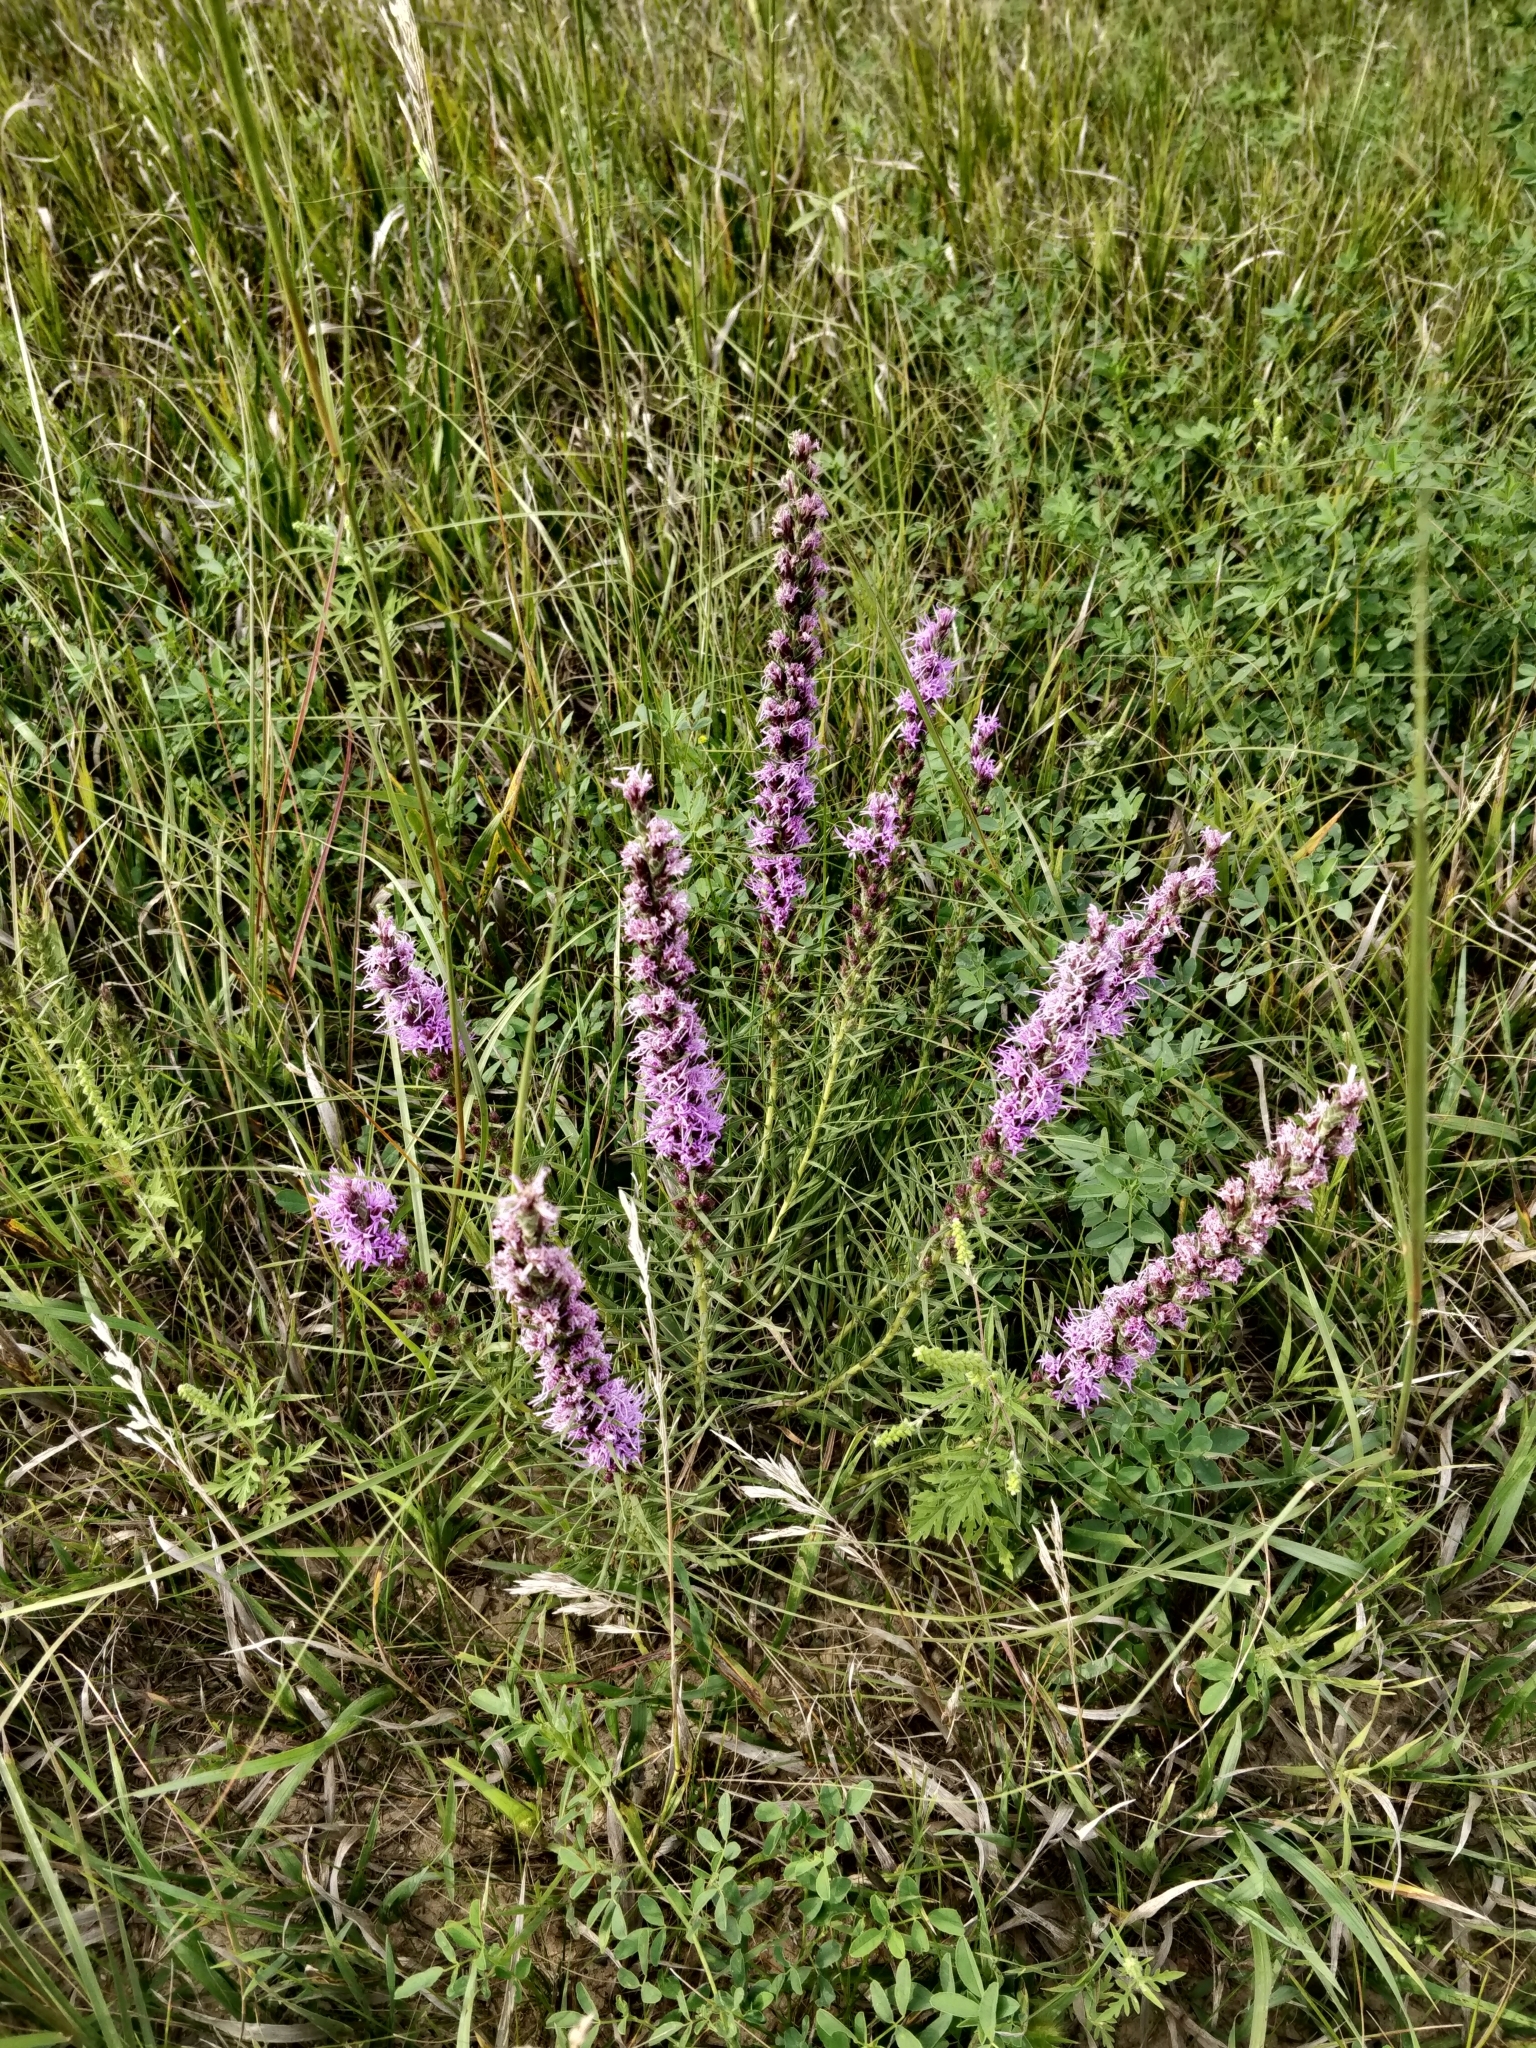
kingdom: Plantae
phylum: Tracheophyta
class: Magnoliopsida
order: Asterales
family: Asteraceae
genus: Liatris
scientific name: Liatris punctata
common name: Dotted gayfeather
